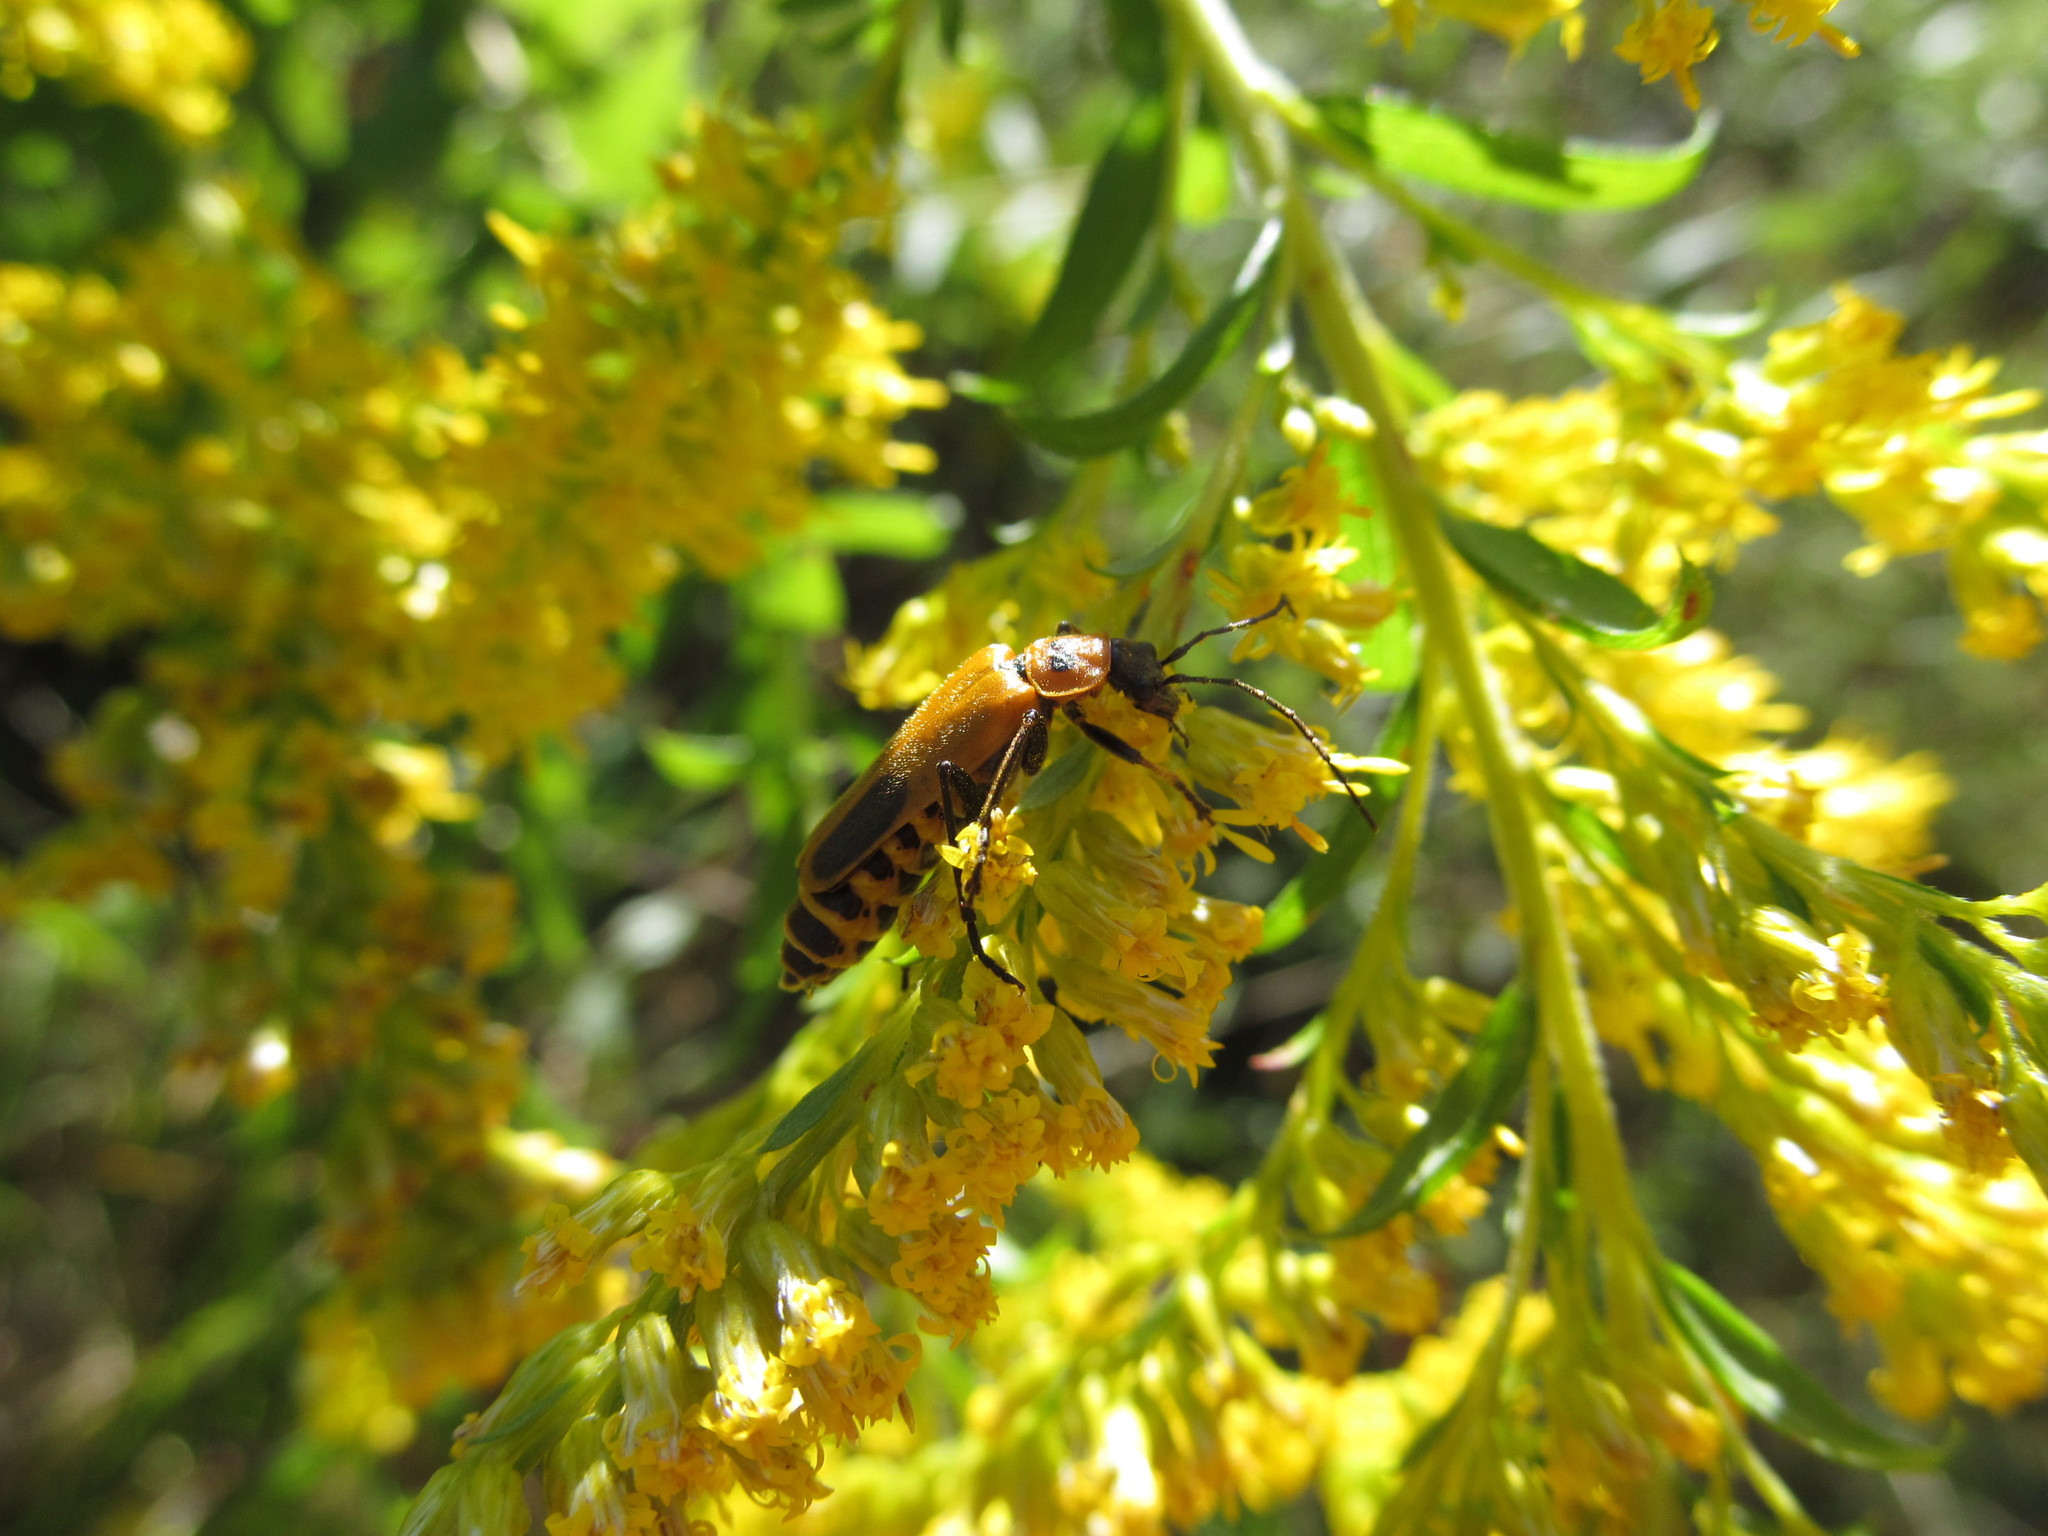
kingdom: Animalia
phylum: Arthropoda
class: Insecta
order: Coleoptera
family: Cantharidae
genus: Chauliognathus
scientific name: Chauliognathus pensylvanicus
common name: Goldenrod soldier beetle
